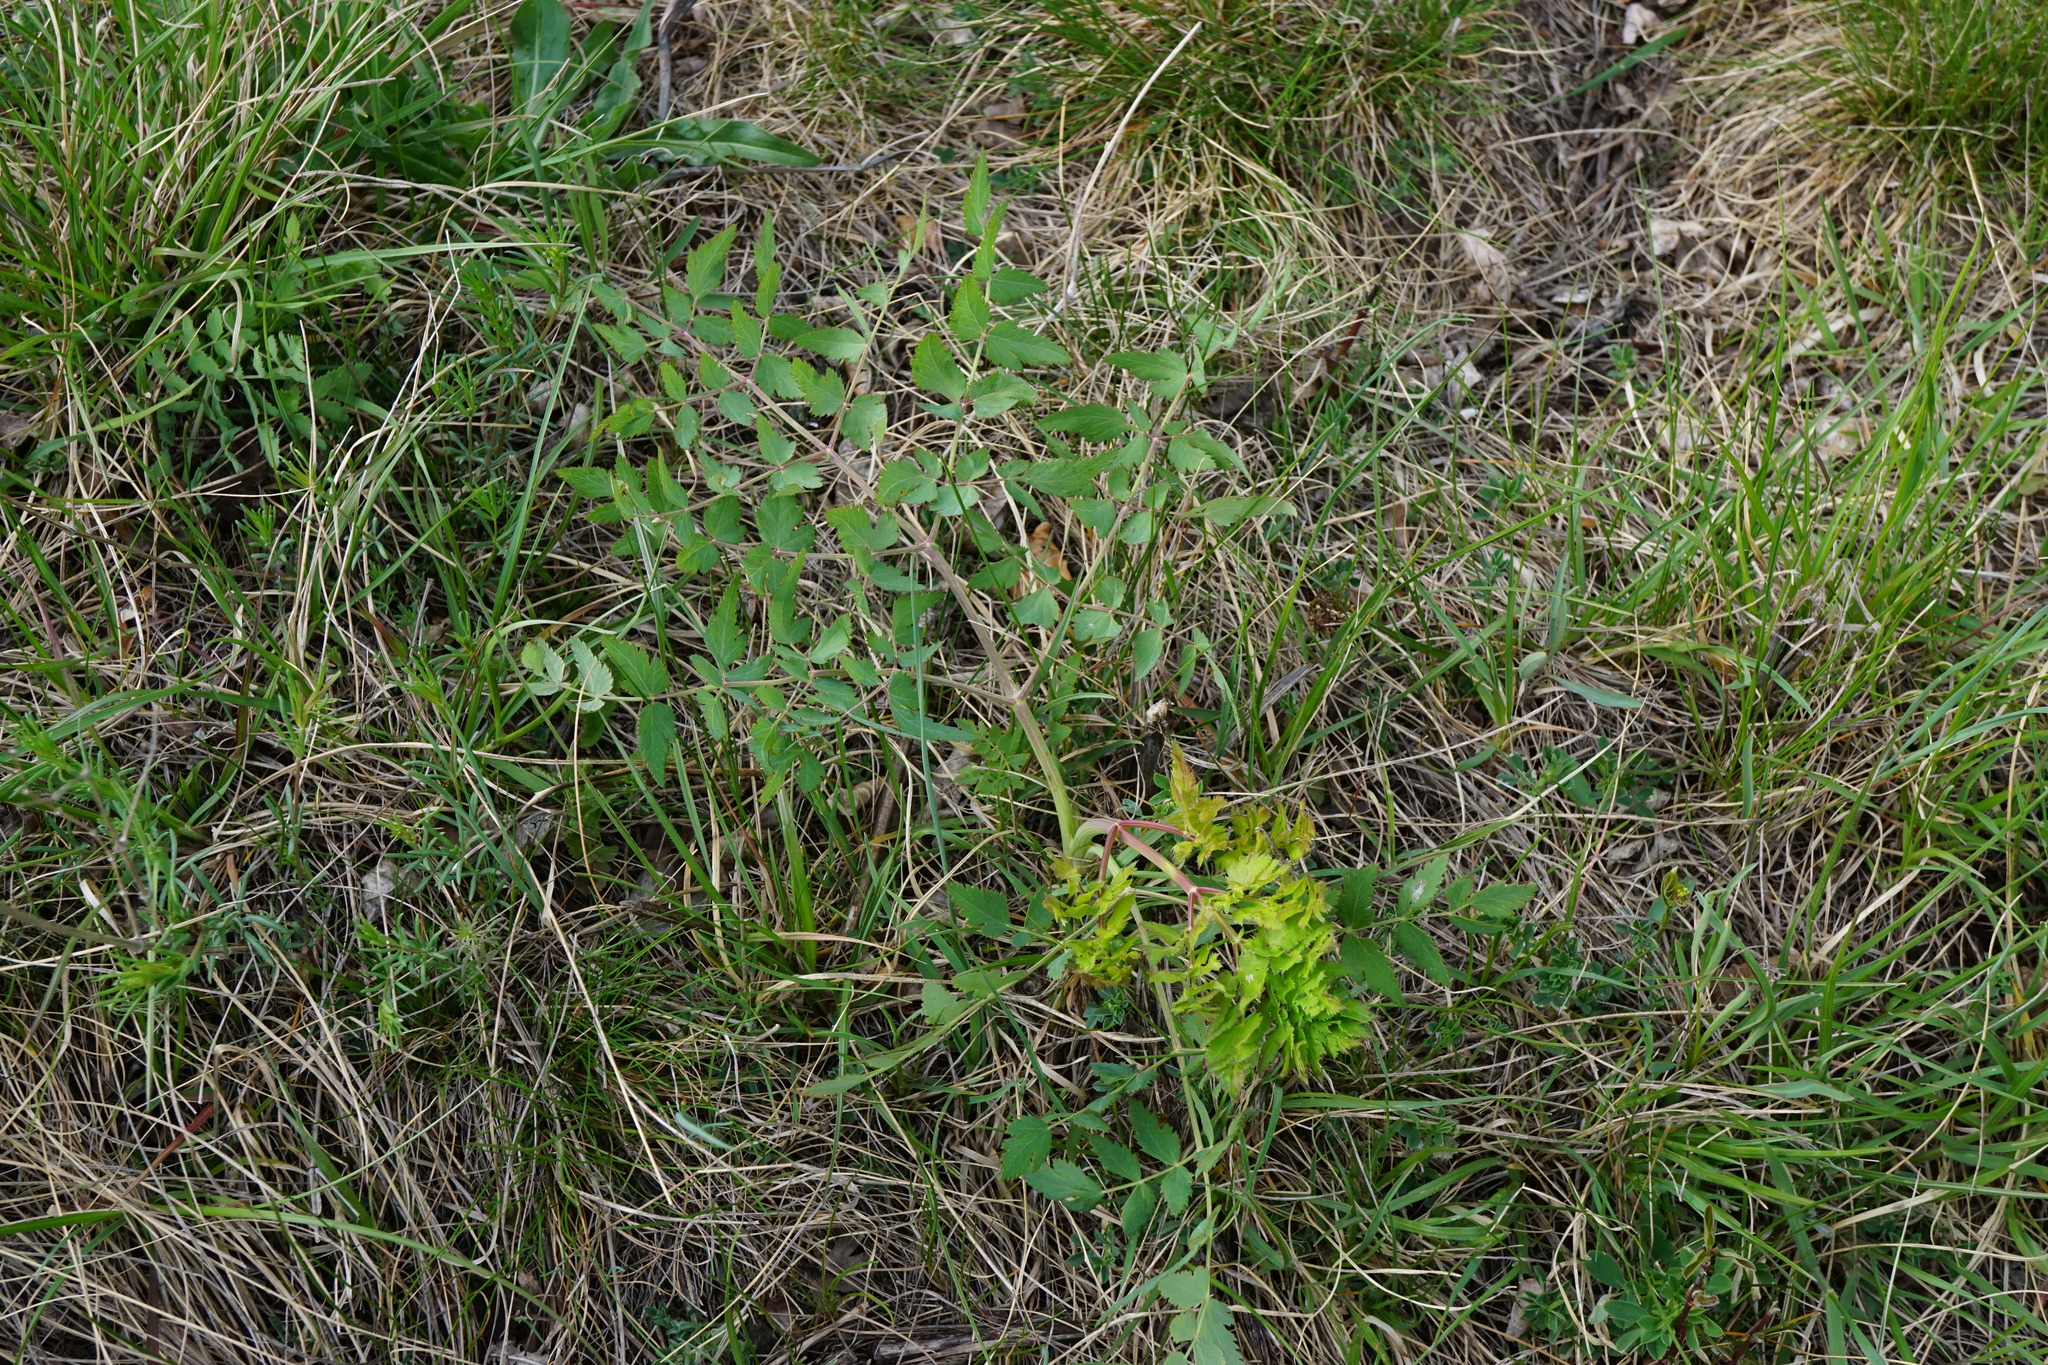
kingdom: Plantae
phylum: Tracheophyta
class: Magnoliopsida
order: Apiales
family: Apiaceae
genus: Cervaria
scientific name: Cervaria rivini
